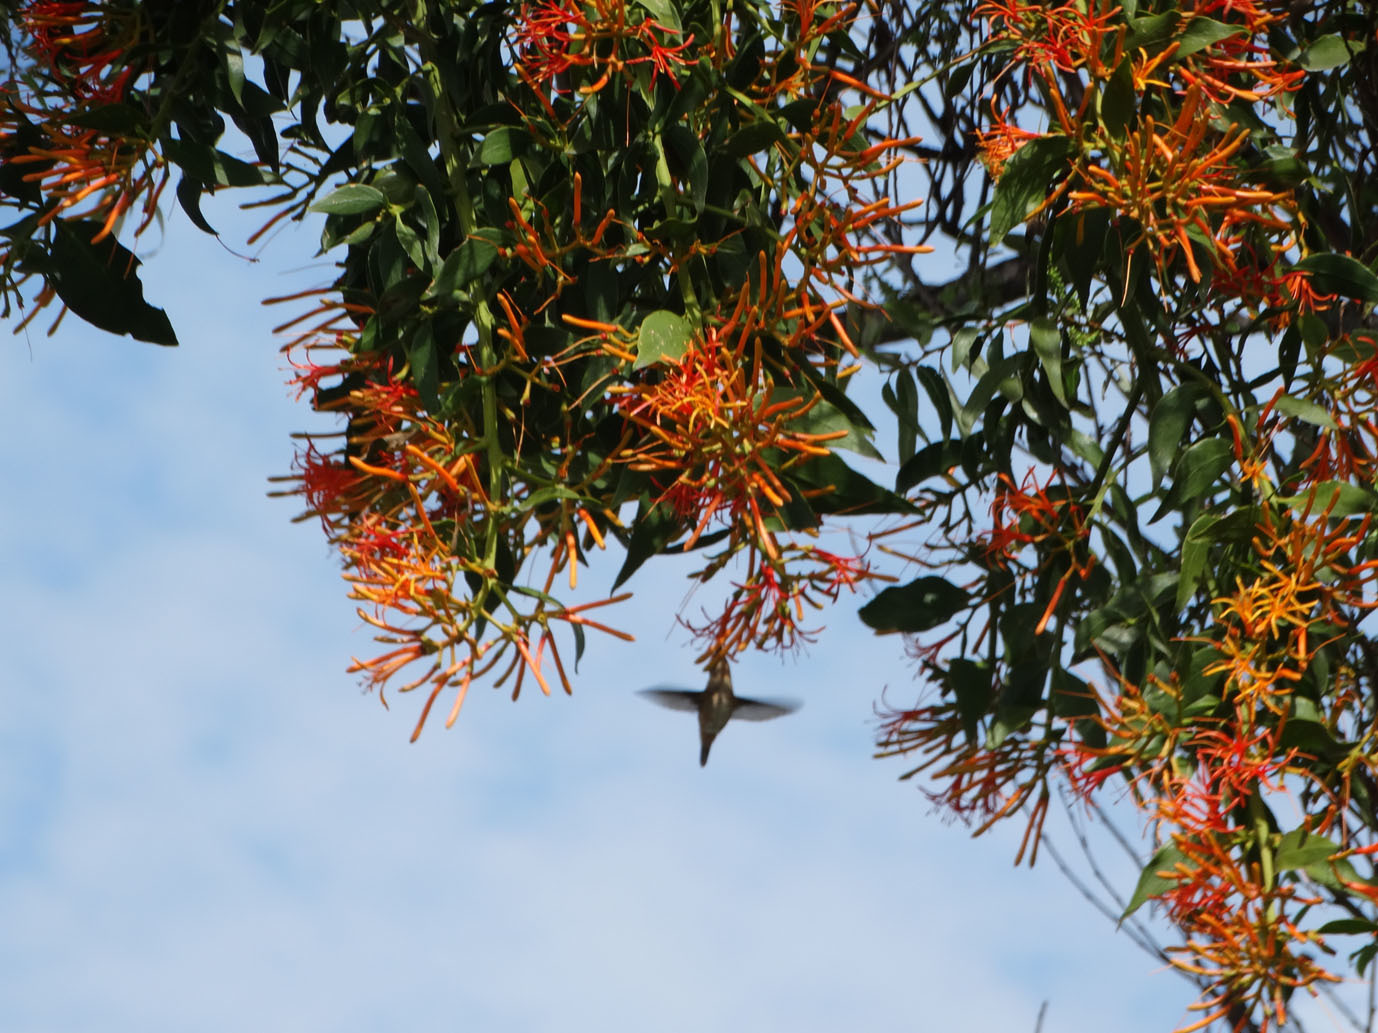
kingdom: Plantae
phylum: Tracheophyta
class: Magnoliopsida
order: Santalales
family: Loranthaceae
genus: Psittacanthus
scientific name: Psittacanthus calyculatus
